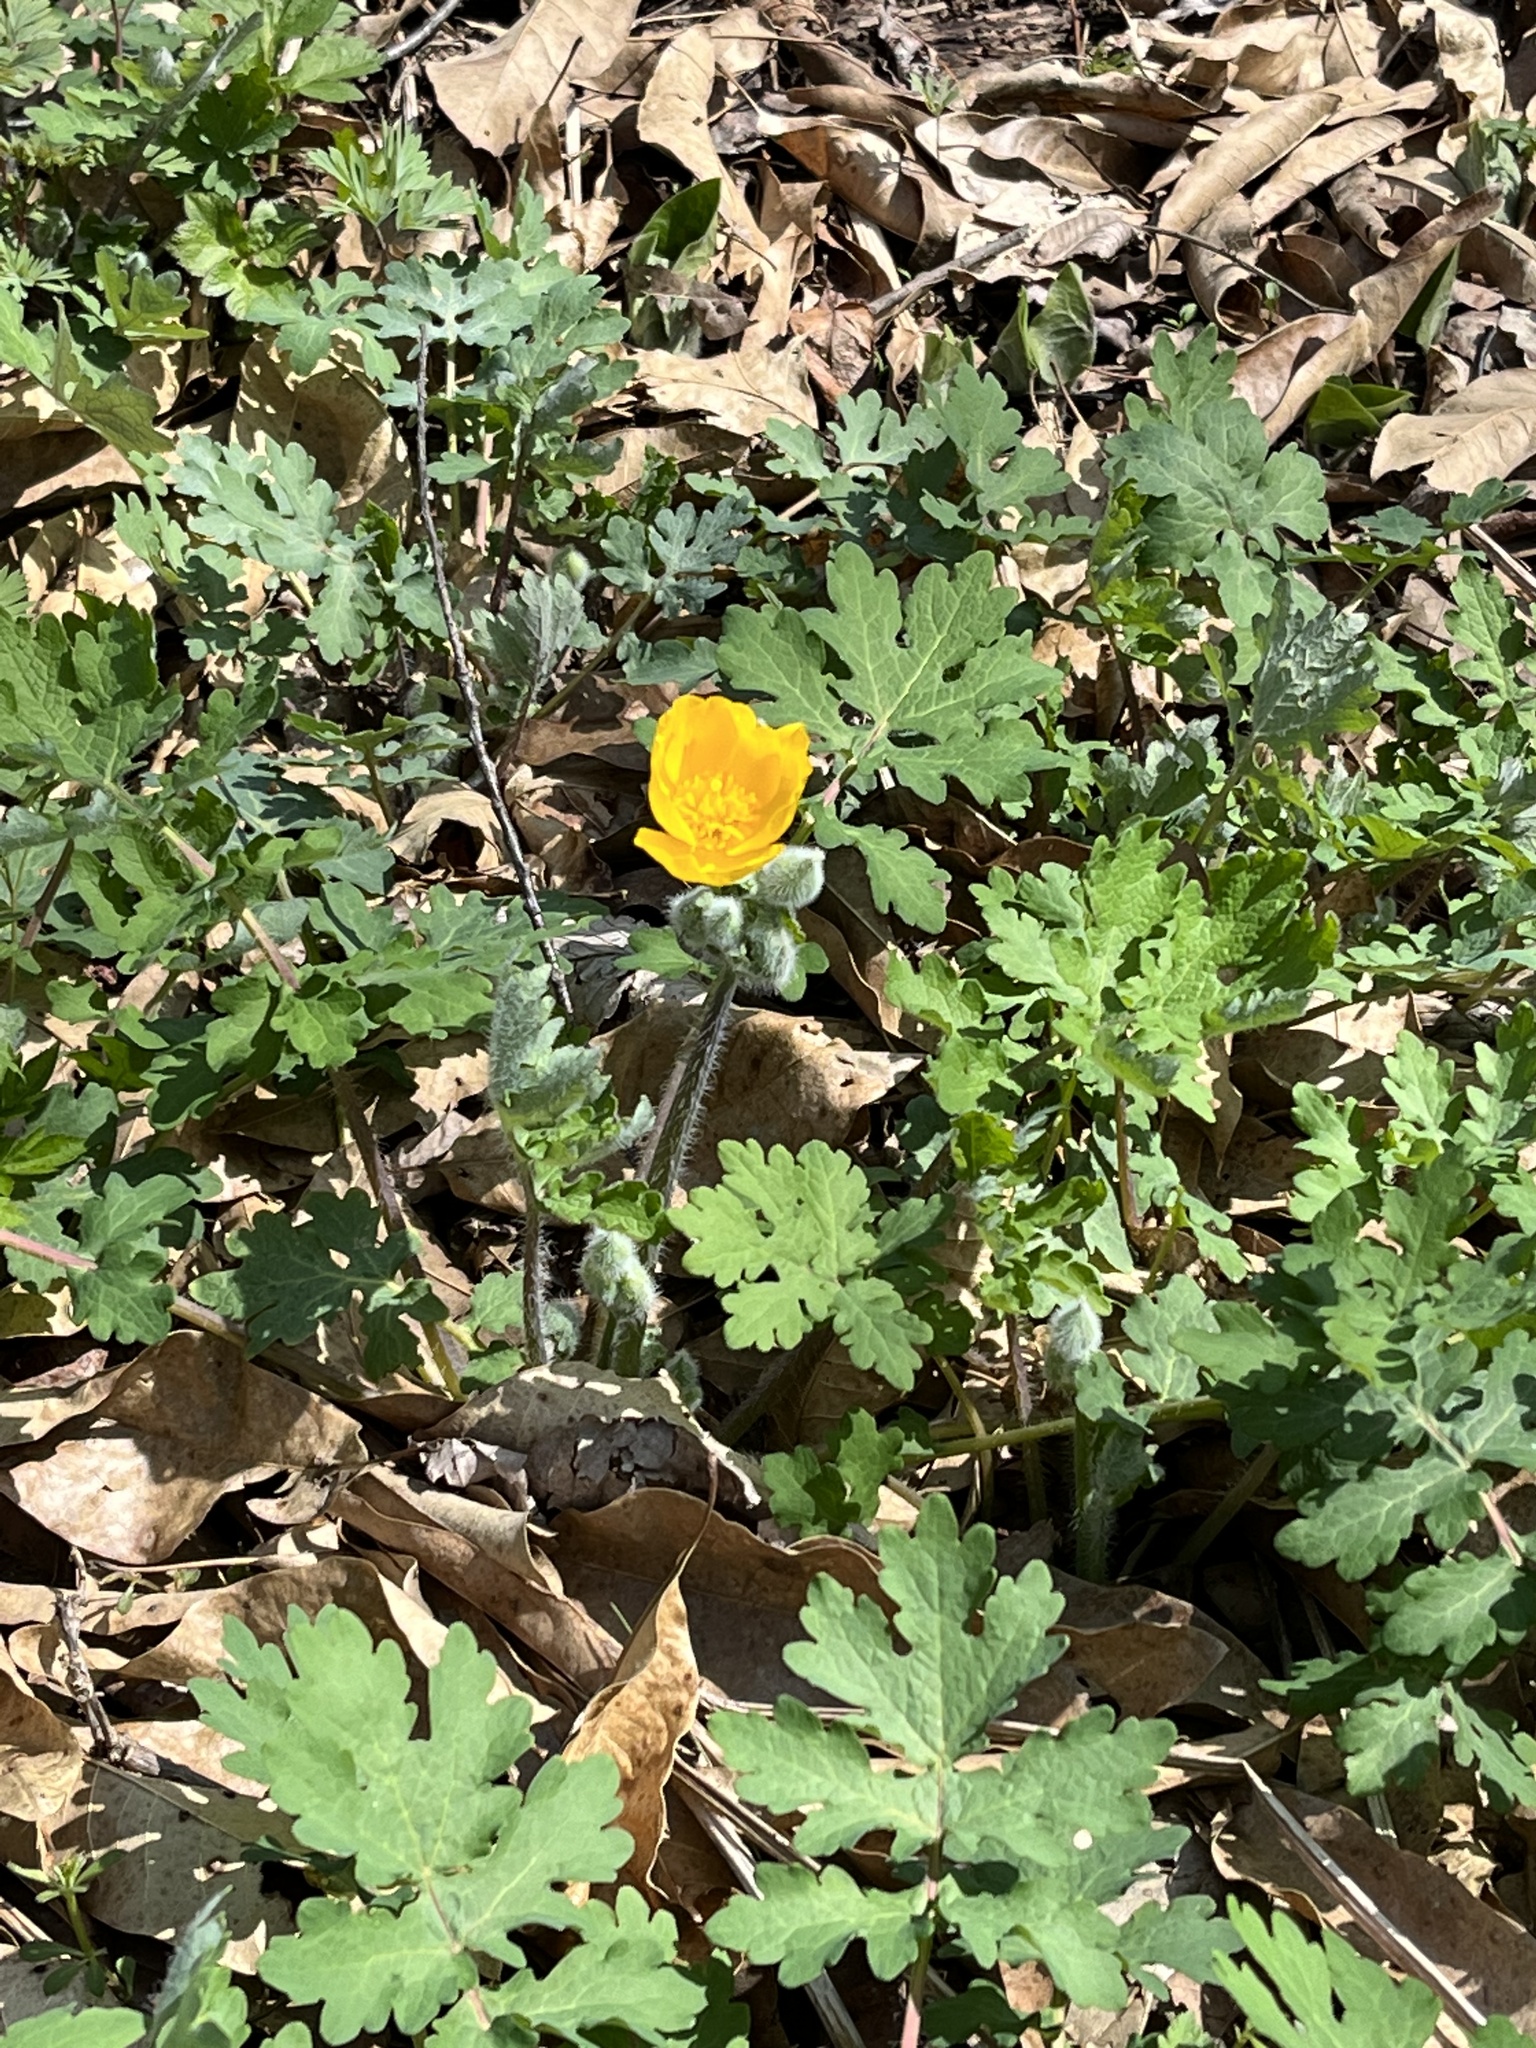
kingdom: Plantae
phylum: Tracheophyta
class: Magnoliopsida
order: Ranunculales
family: Papaveraceae
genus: Stylophorum
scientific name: Stylophorum diphyllum
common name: Celandine poppy
